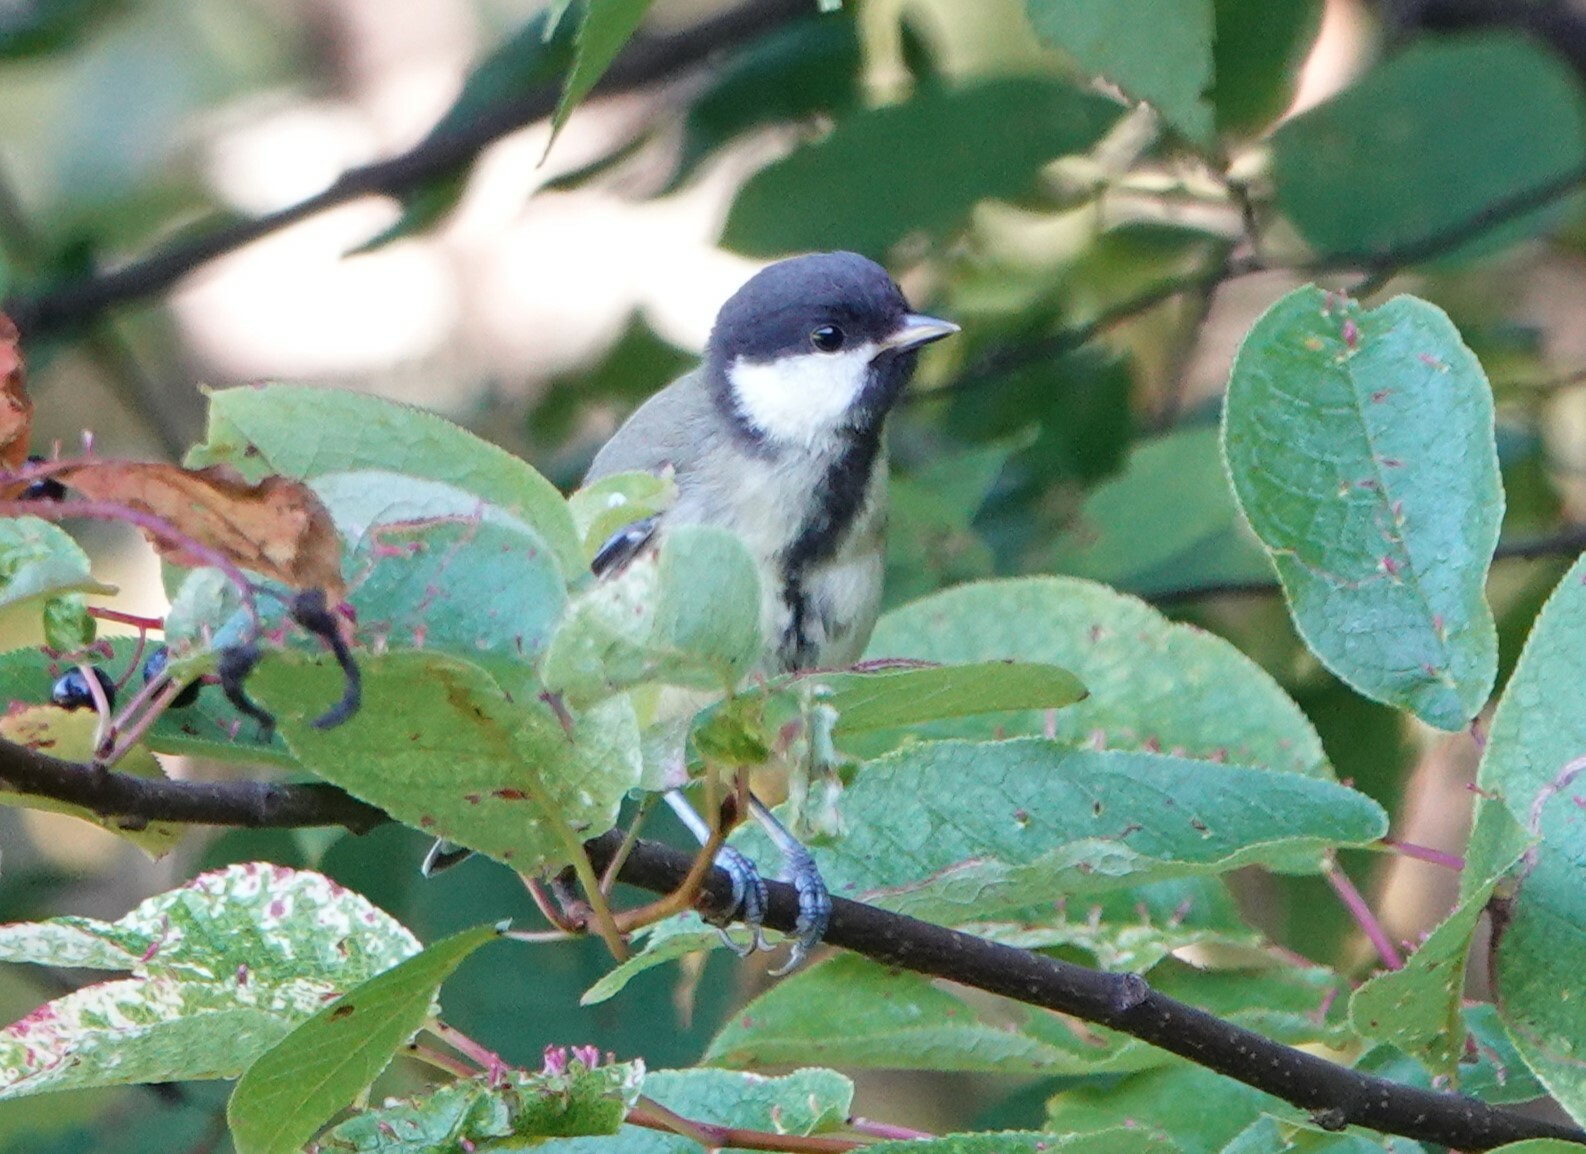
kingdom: Animalia
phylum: Chordata
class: Aves
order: Passeriformes
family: Paridae
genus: Parus
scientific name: Parus major
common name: Great tit
